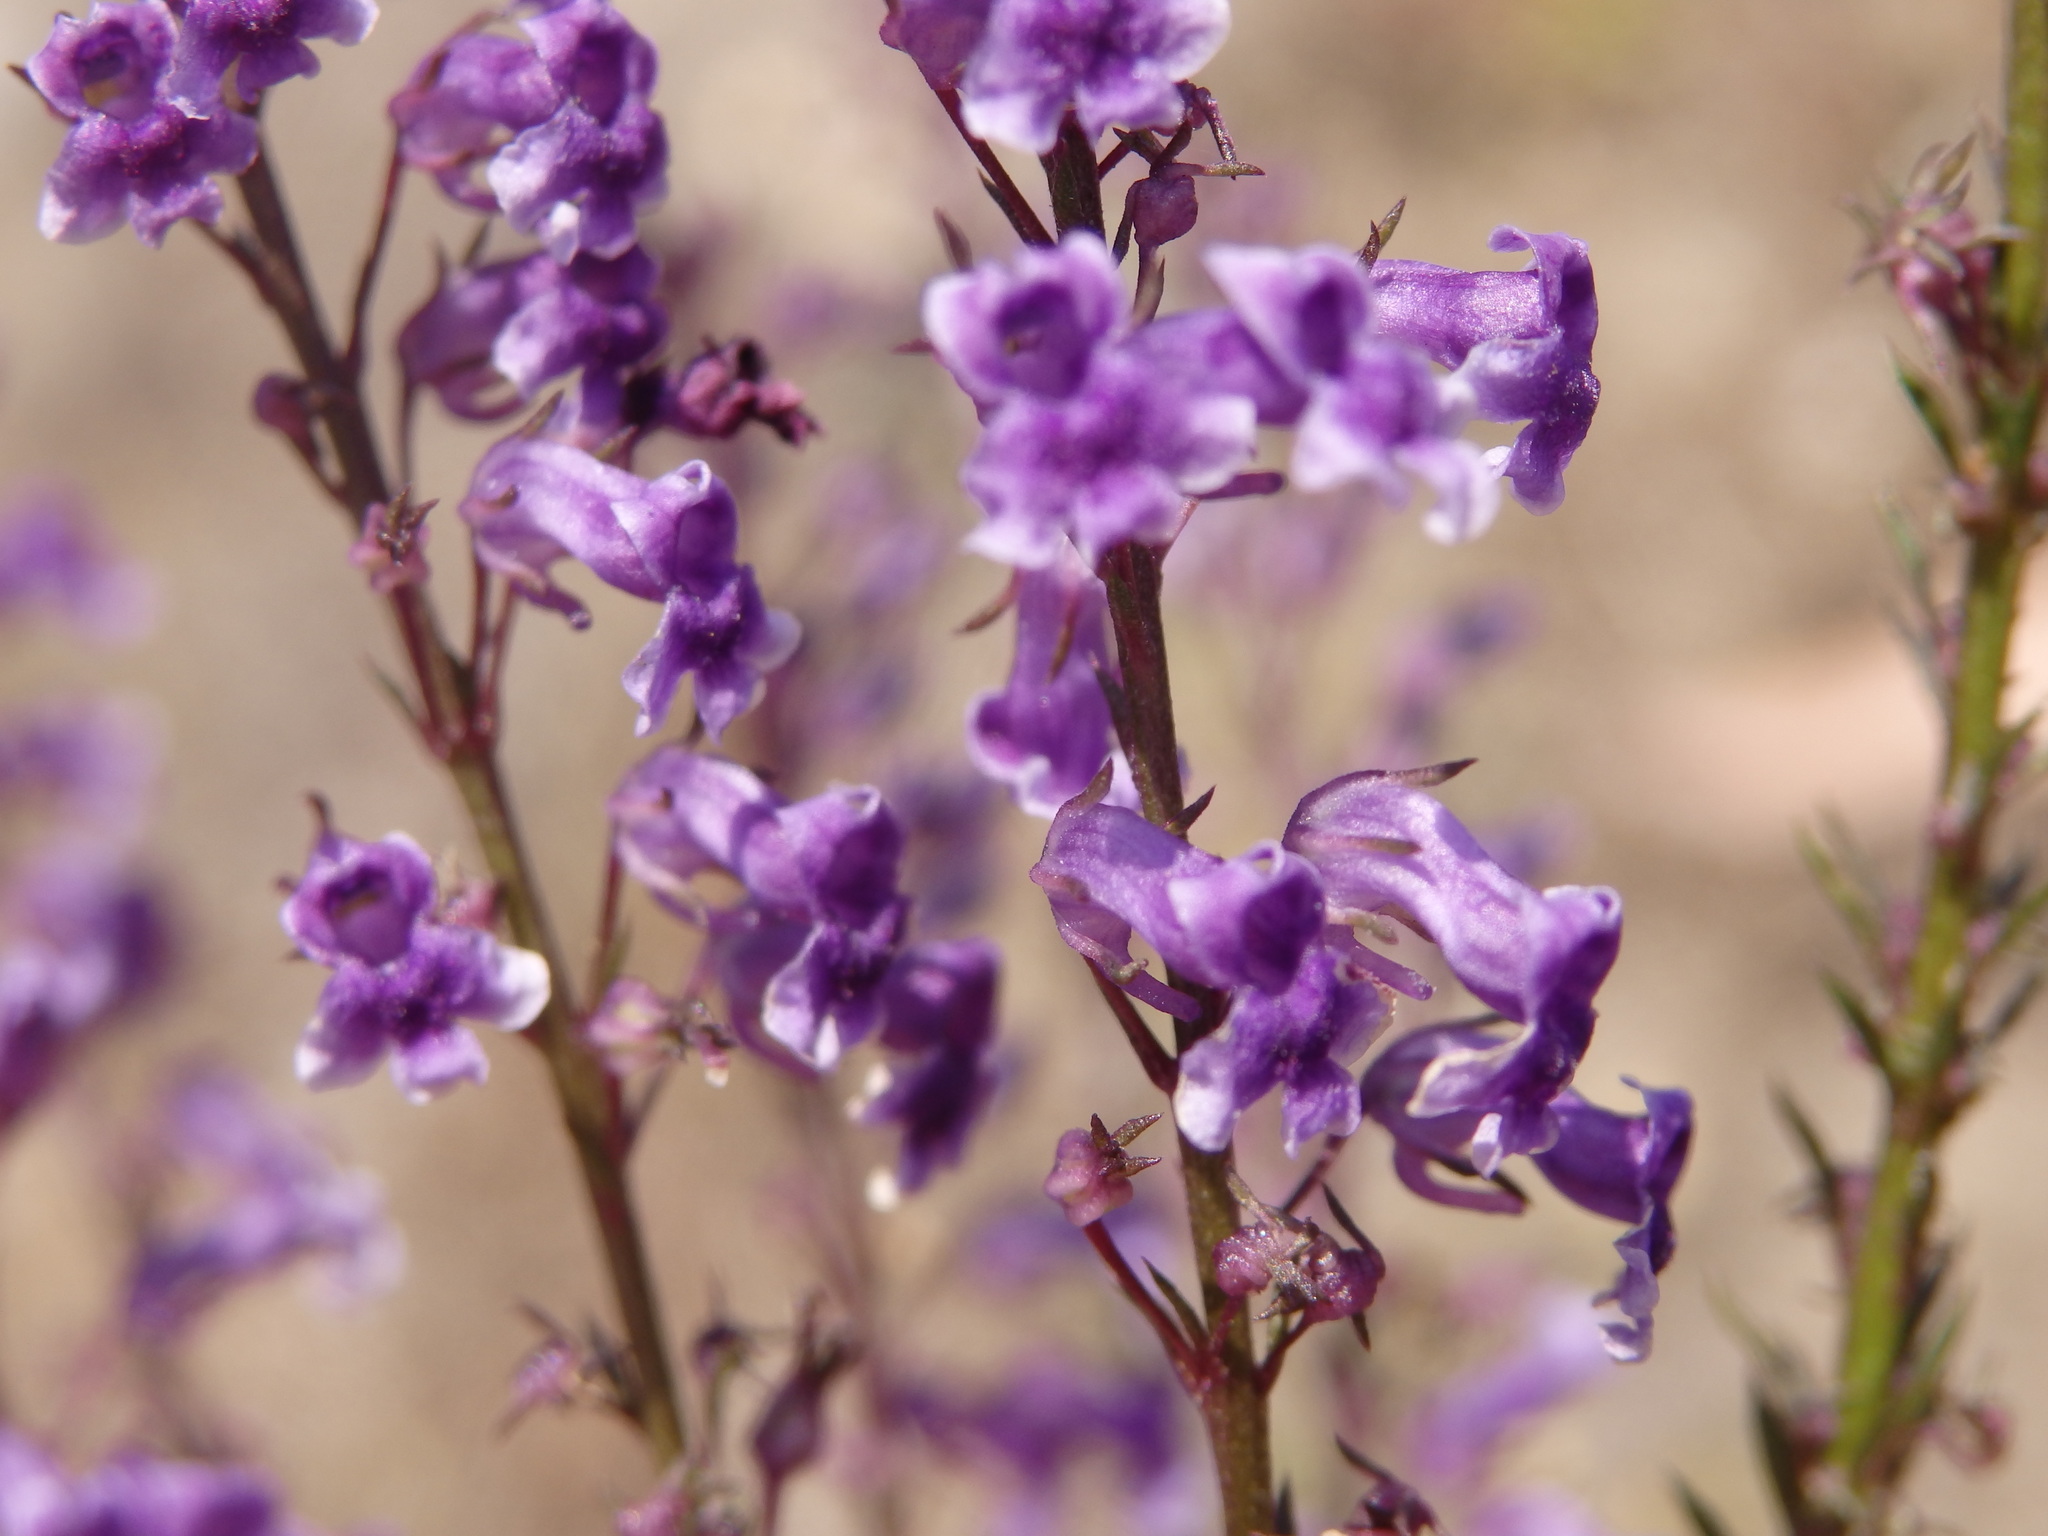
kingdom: Plantae
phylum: Tracheophyta
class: Magnoliopsida
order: Lamiales
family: Plantaginaceae
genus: Anarrhinum
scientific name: Anarrhinum longipedicellatum
